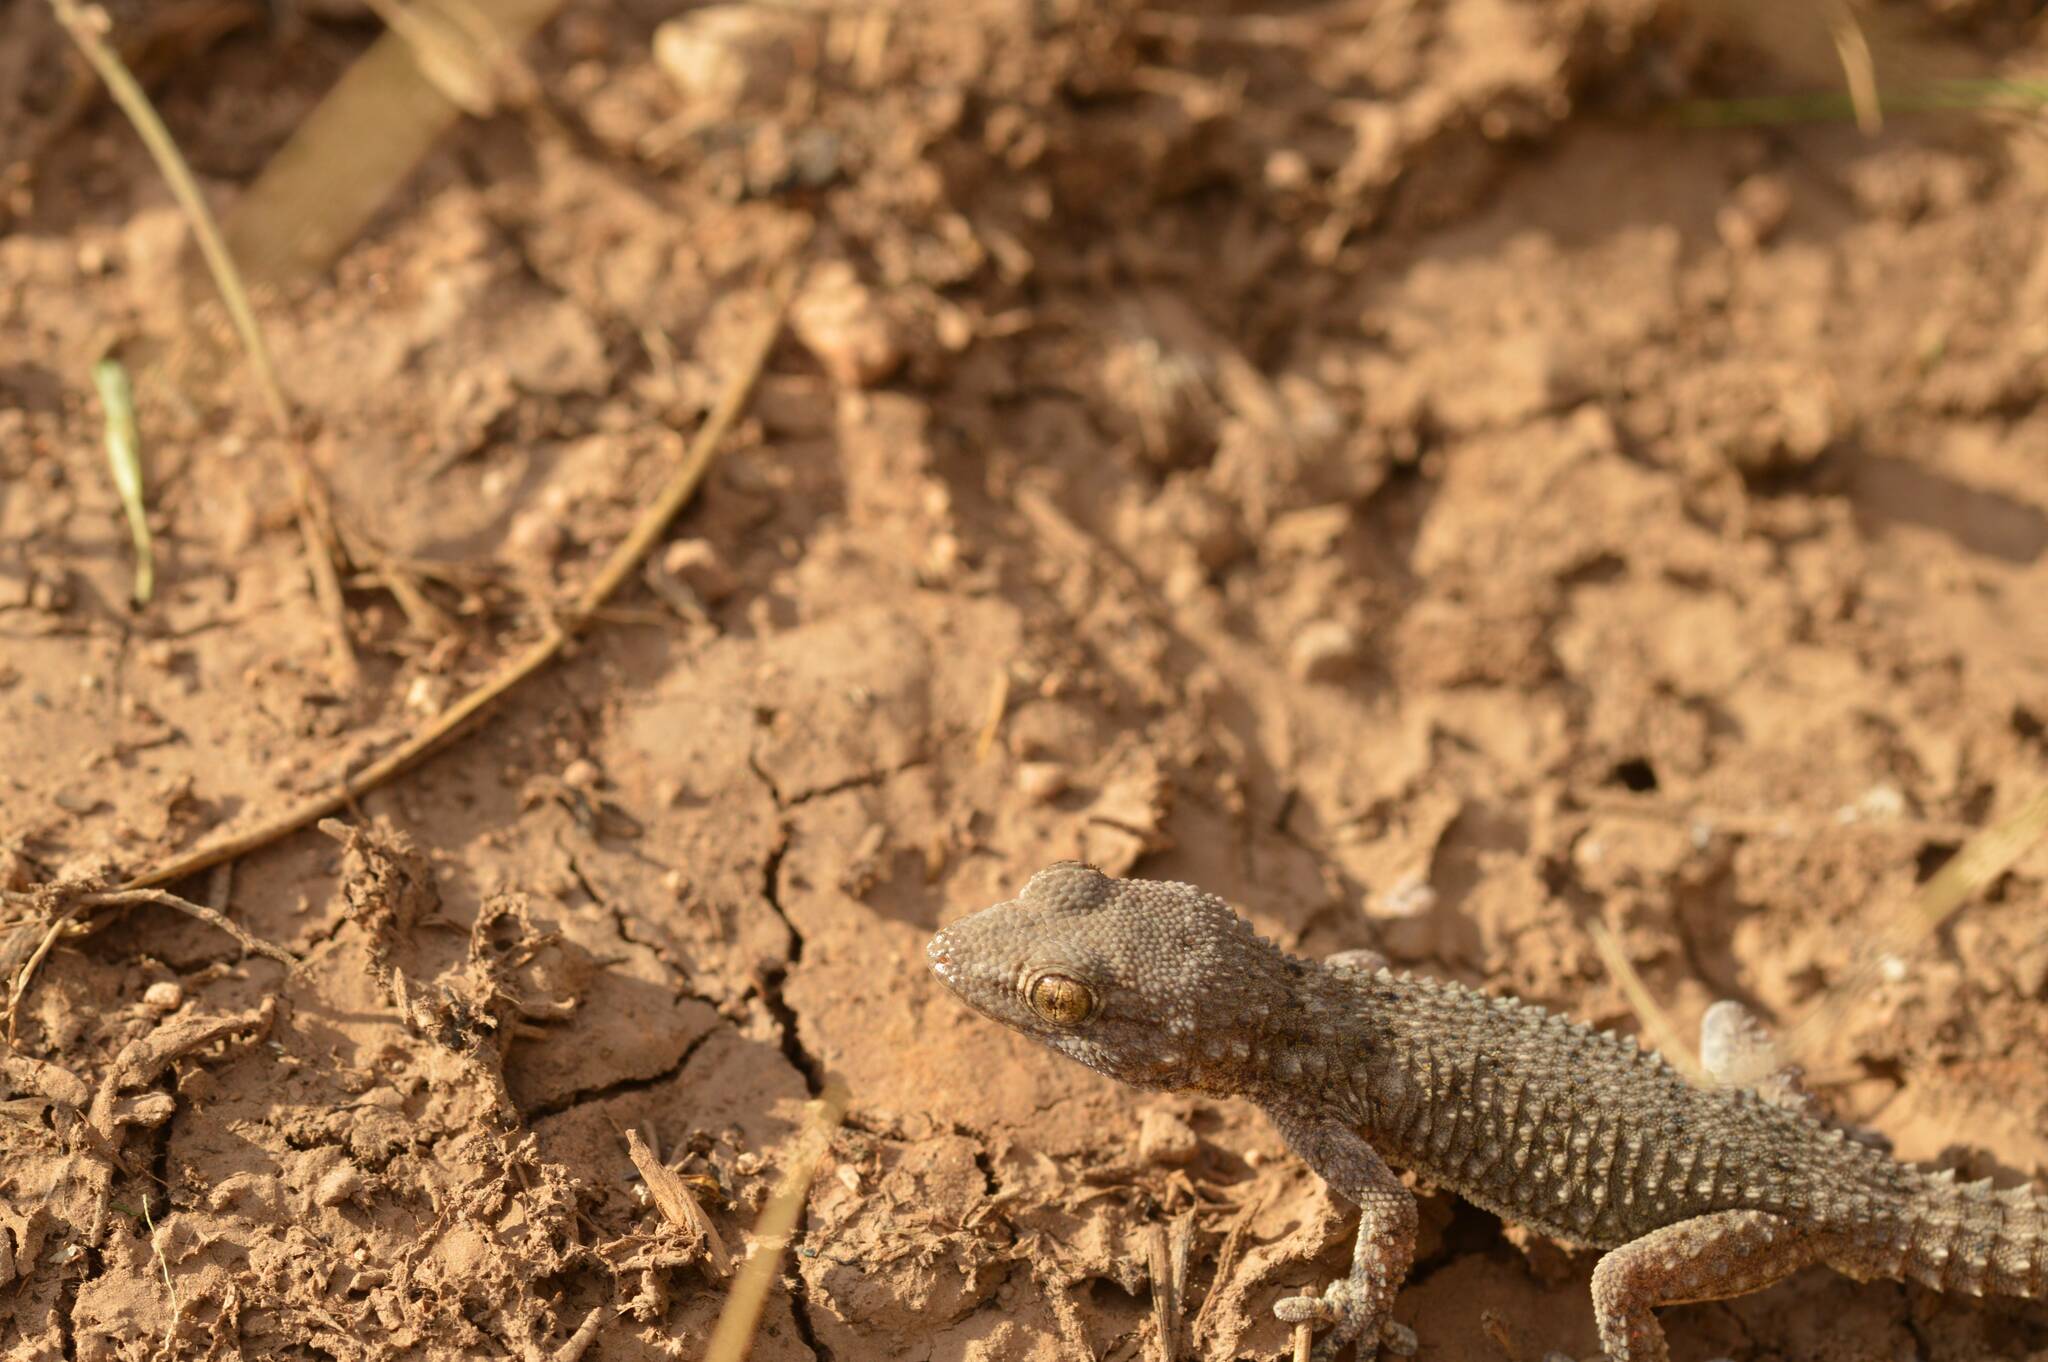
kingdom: Animalia
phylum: Chordata
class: Squamata
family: Phyllodactylidae
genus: Tarentola
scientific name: Tarentola mauritanica
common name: Moorish gecko
